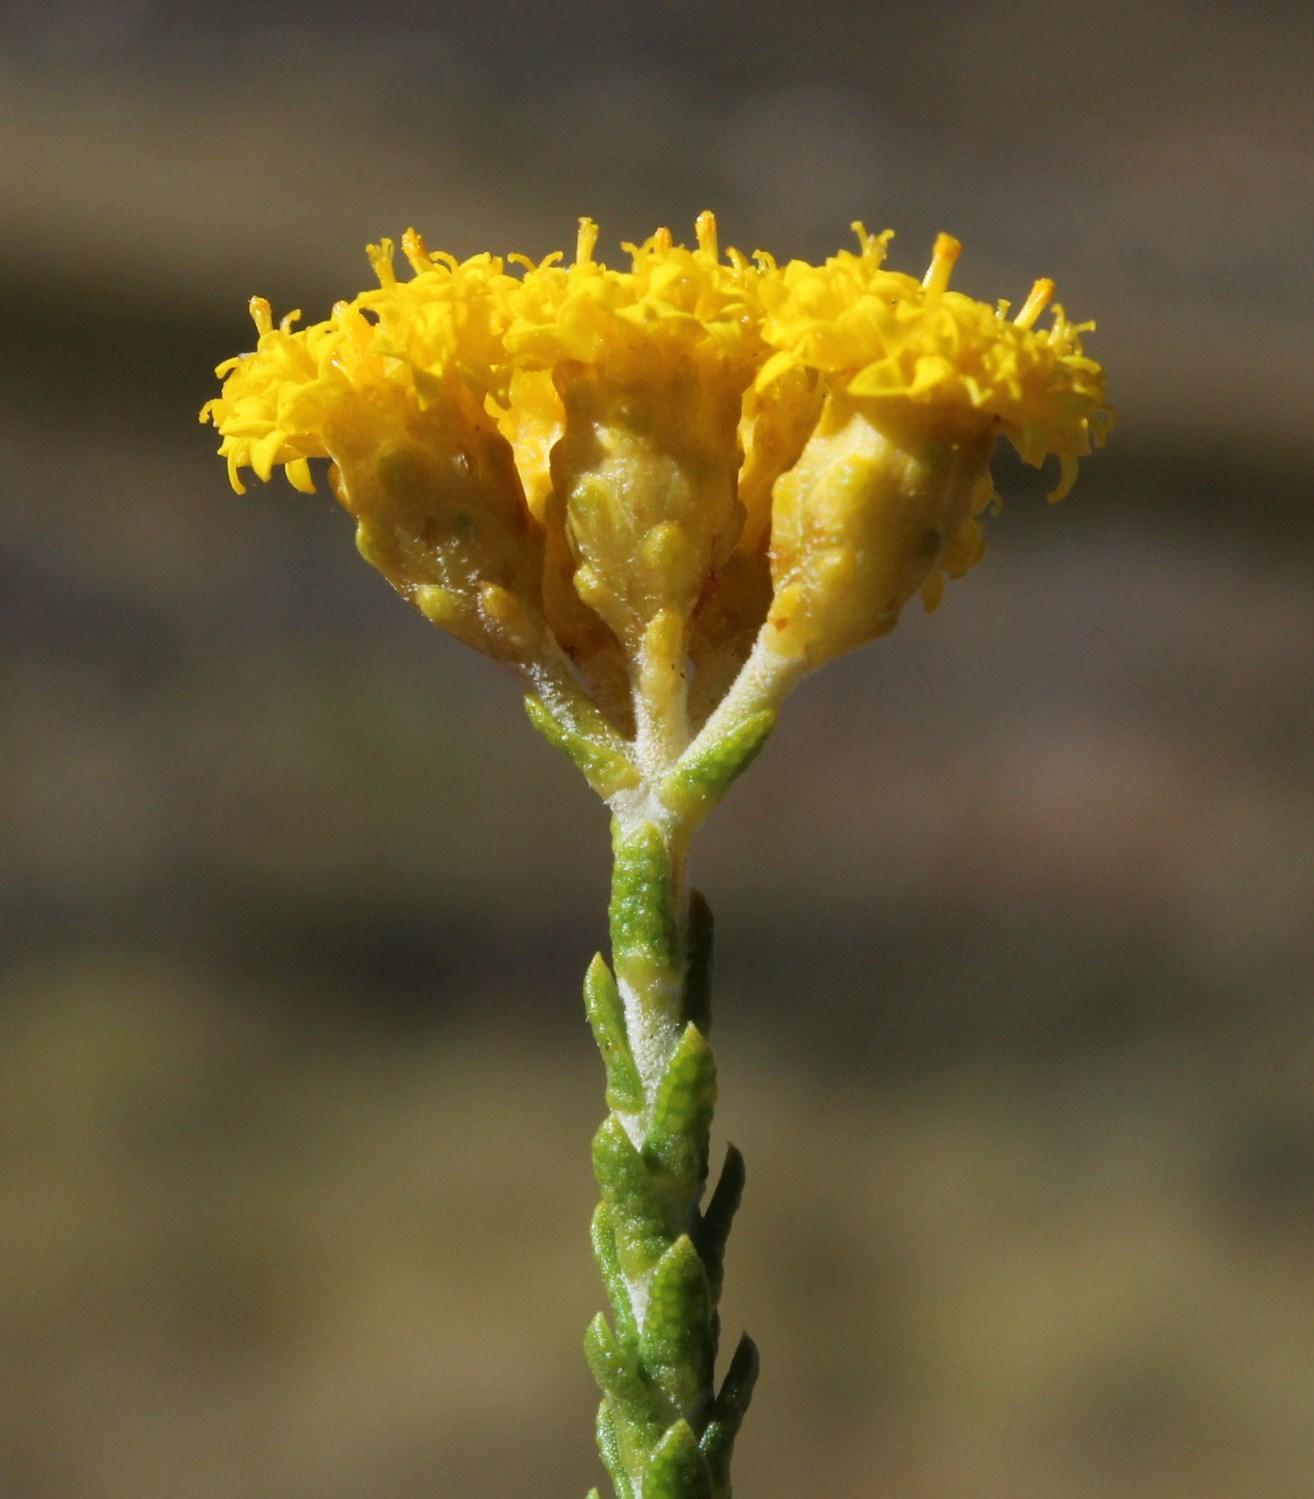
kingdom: Plantae
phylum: Tracheophyta
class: Magnoliopsida
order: Asterales
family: Asteraceae
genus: Athanasia
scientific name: Athanasia microphylla
